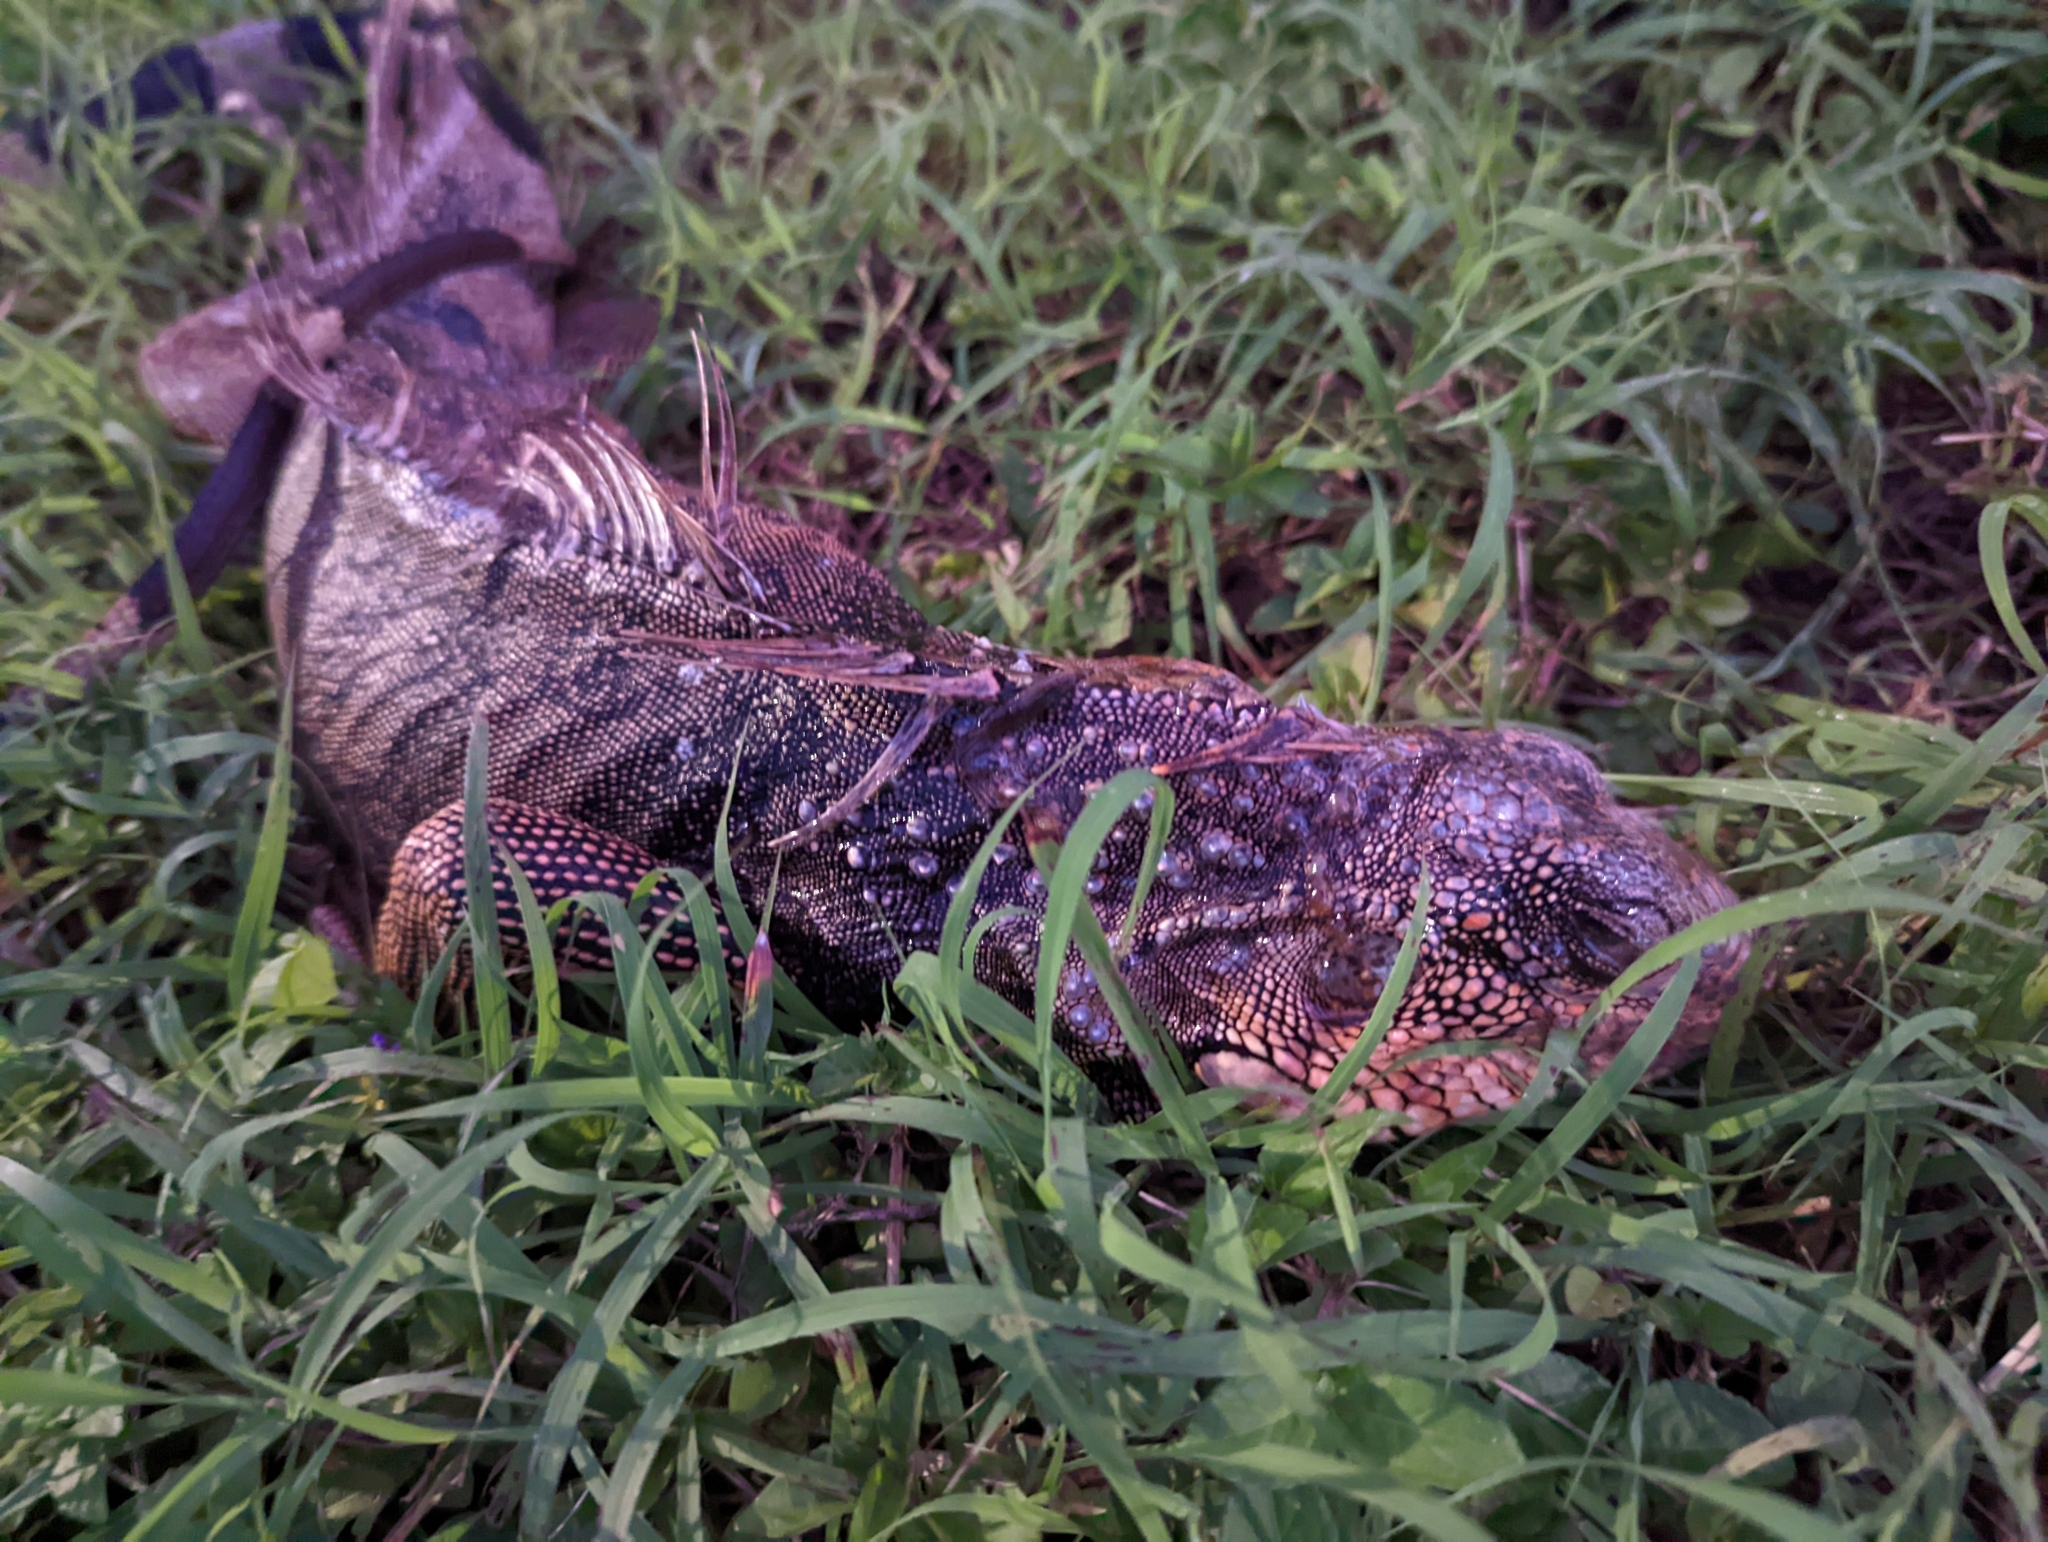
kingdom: Animalia
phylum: Chordata
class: Squamata
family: Iguanidae
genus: Iguana
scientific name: Iguana iguana
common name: Green iguana
